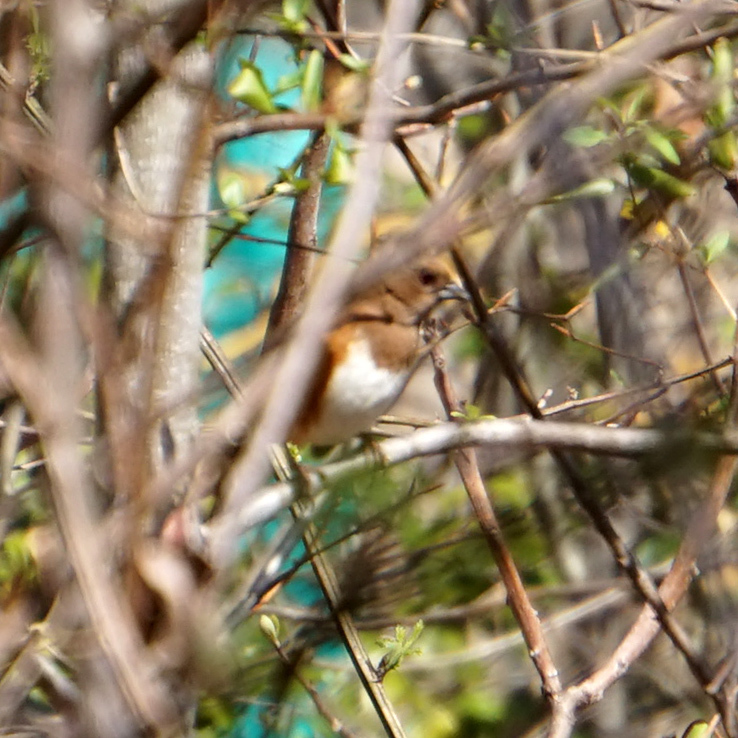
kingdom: Animalia
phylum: Chordata
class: Aves
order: Passeriformes
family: Passerellidae
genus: Pipilo
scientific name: Pipilo erythrophthalmus
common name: Eastern towhee
